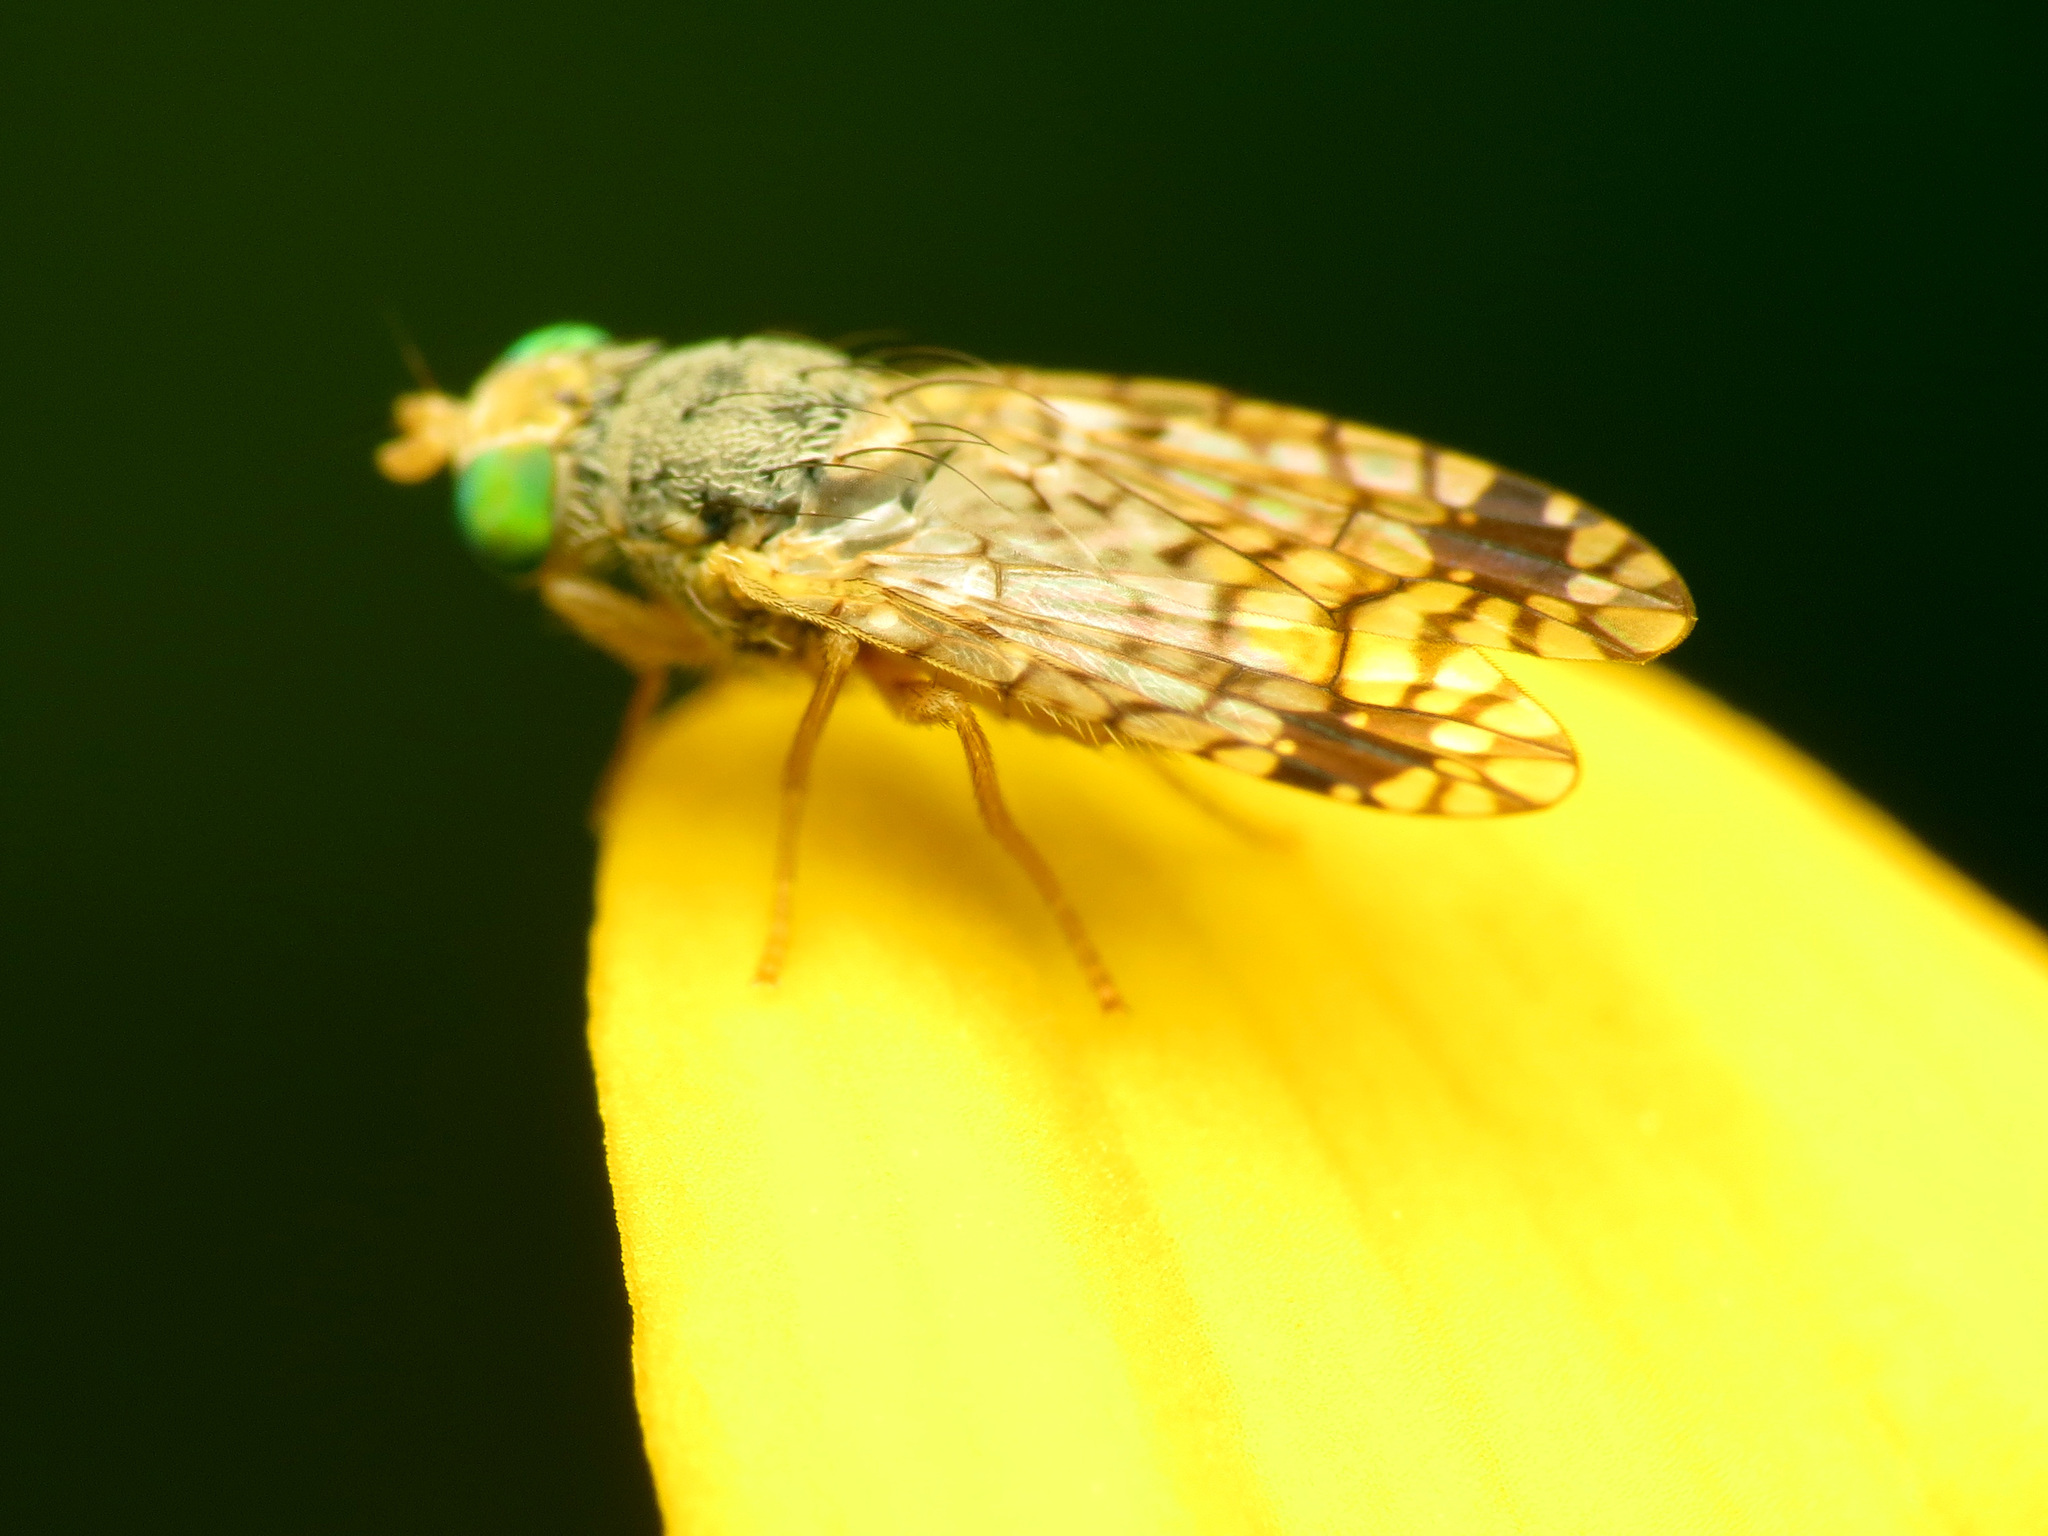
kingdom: Animalia
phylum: Arthropoda
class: Insecta
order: Diptera
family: Tephritidae
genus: Euarestoides
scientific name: Euarestoides acutangulus
